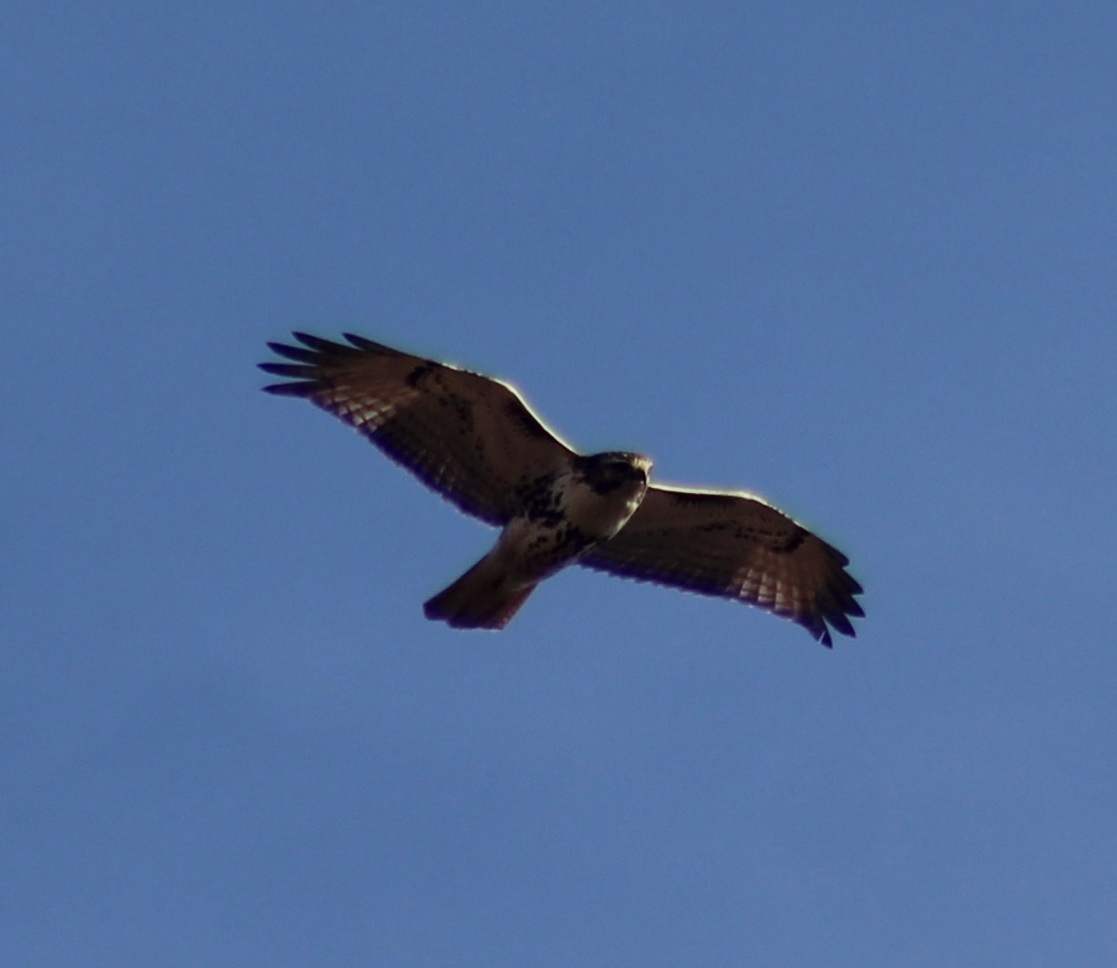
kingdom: Animalia
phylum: Chordata
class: Aves
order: Accipitriformes
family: Accipitridae
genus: Buteo
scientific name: Buteo jamaicensis
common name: Red-tailed hawk
